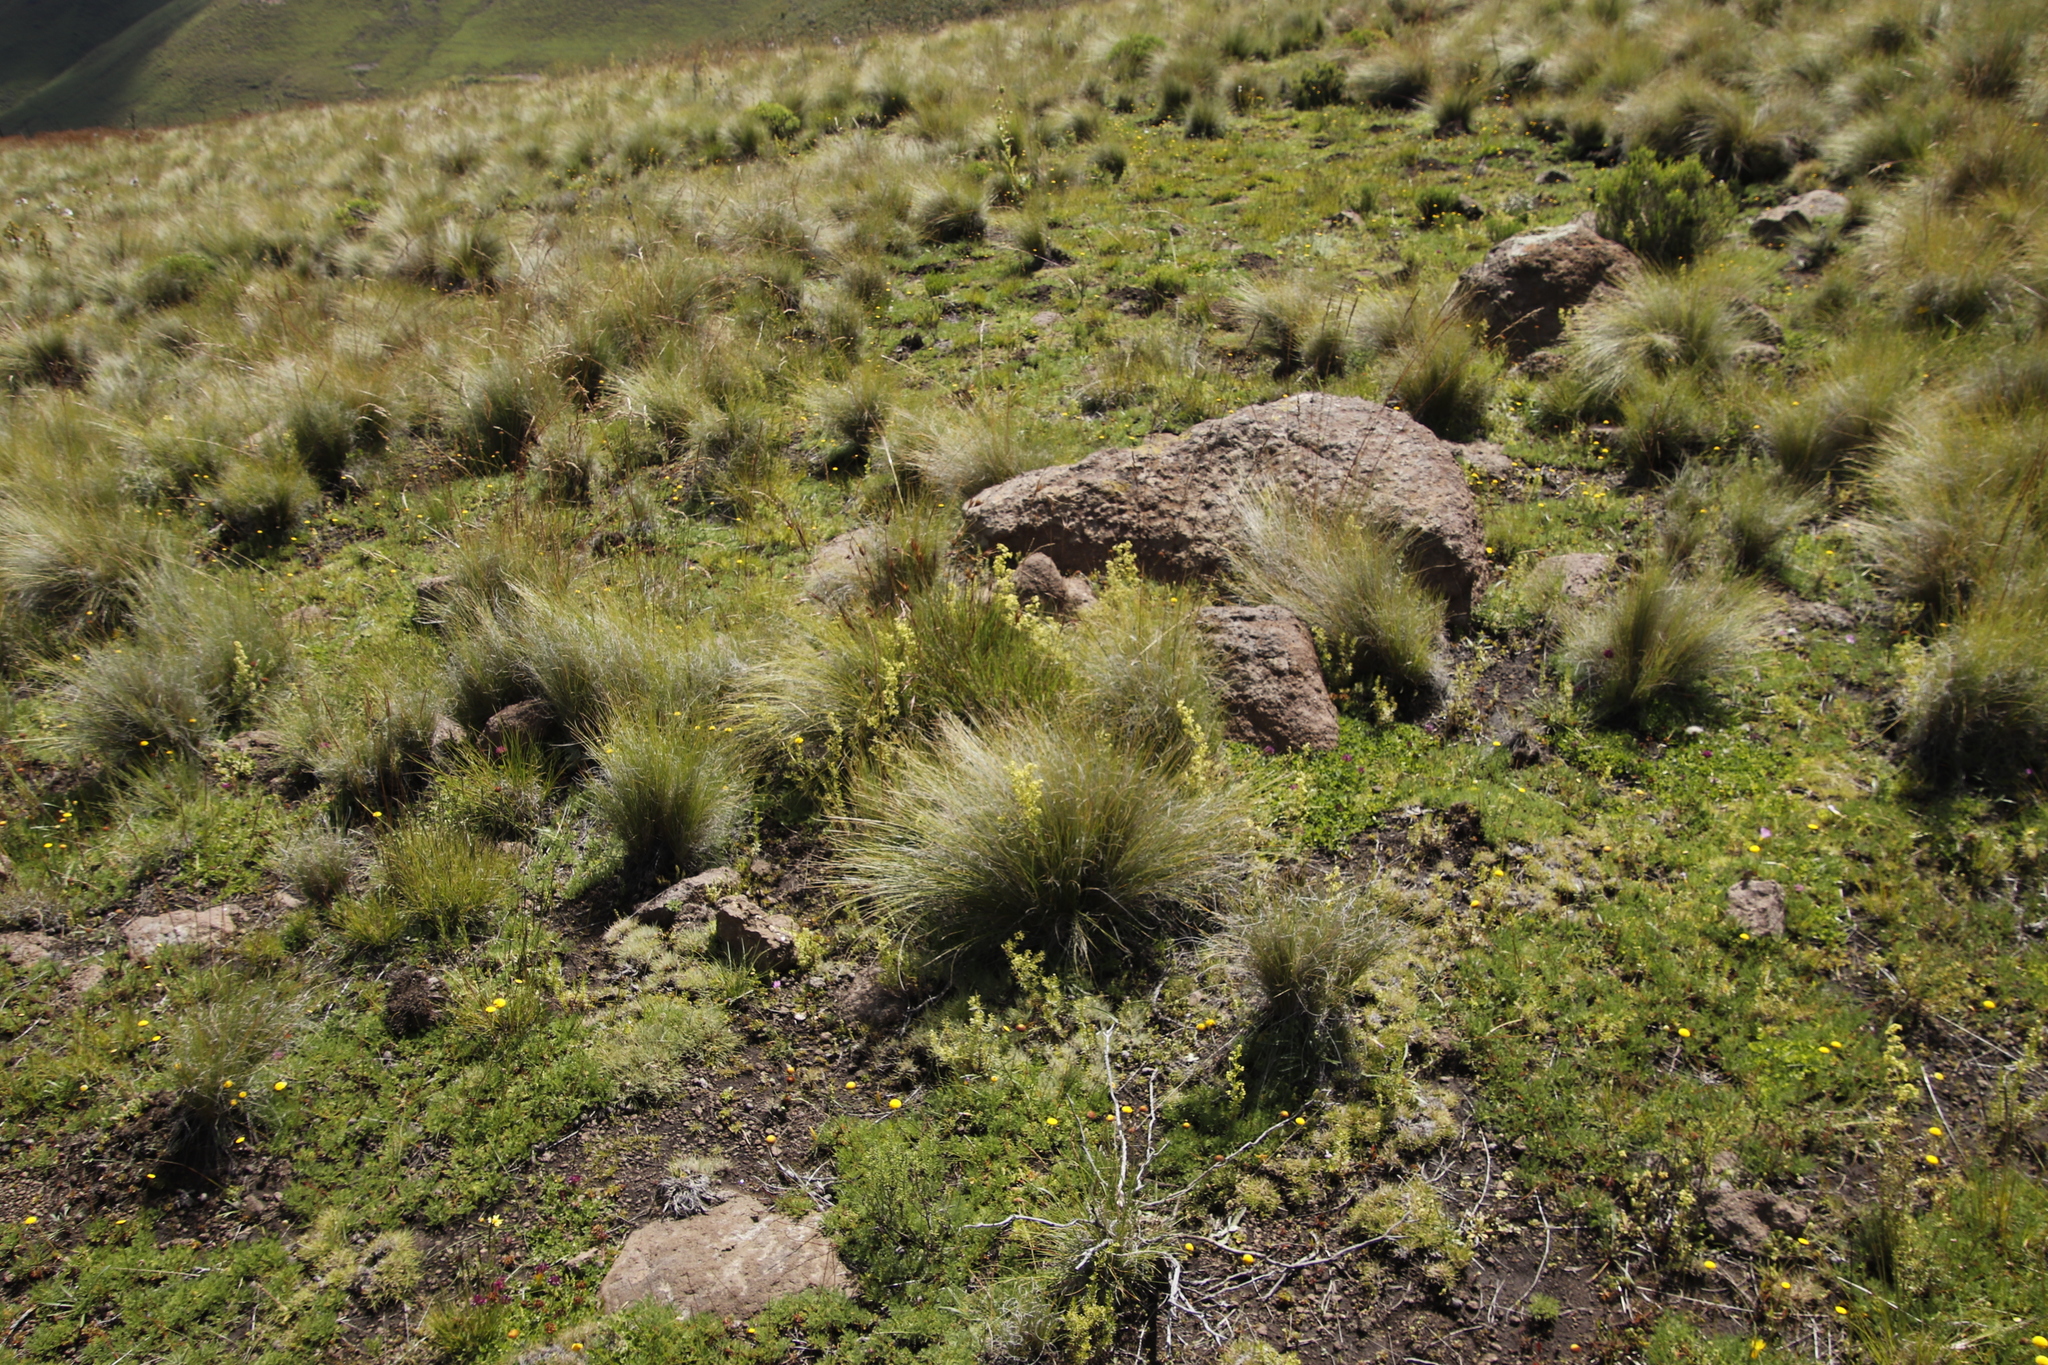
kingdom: Plantae
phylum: Tracheophyta
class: Magnoliopsida
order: Gentianales
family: Rubiaceae
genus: Galium
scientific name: Galium capense
